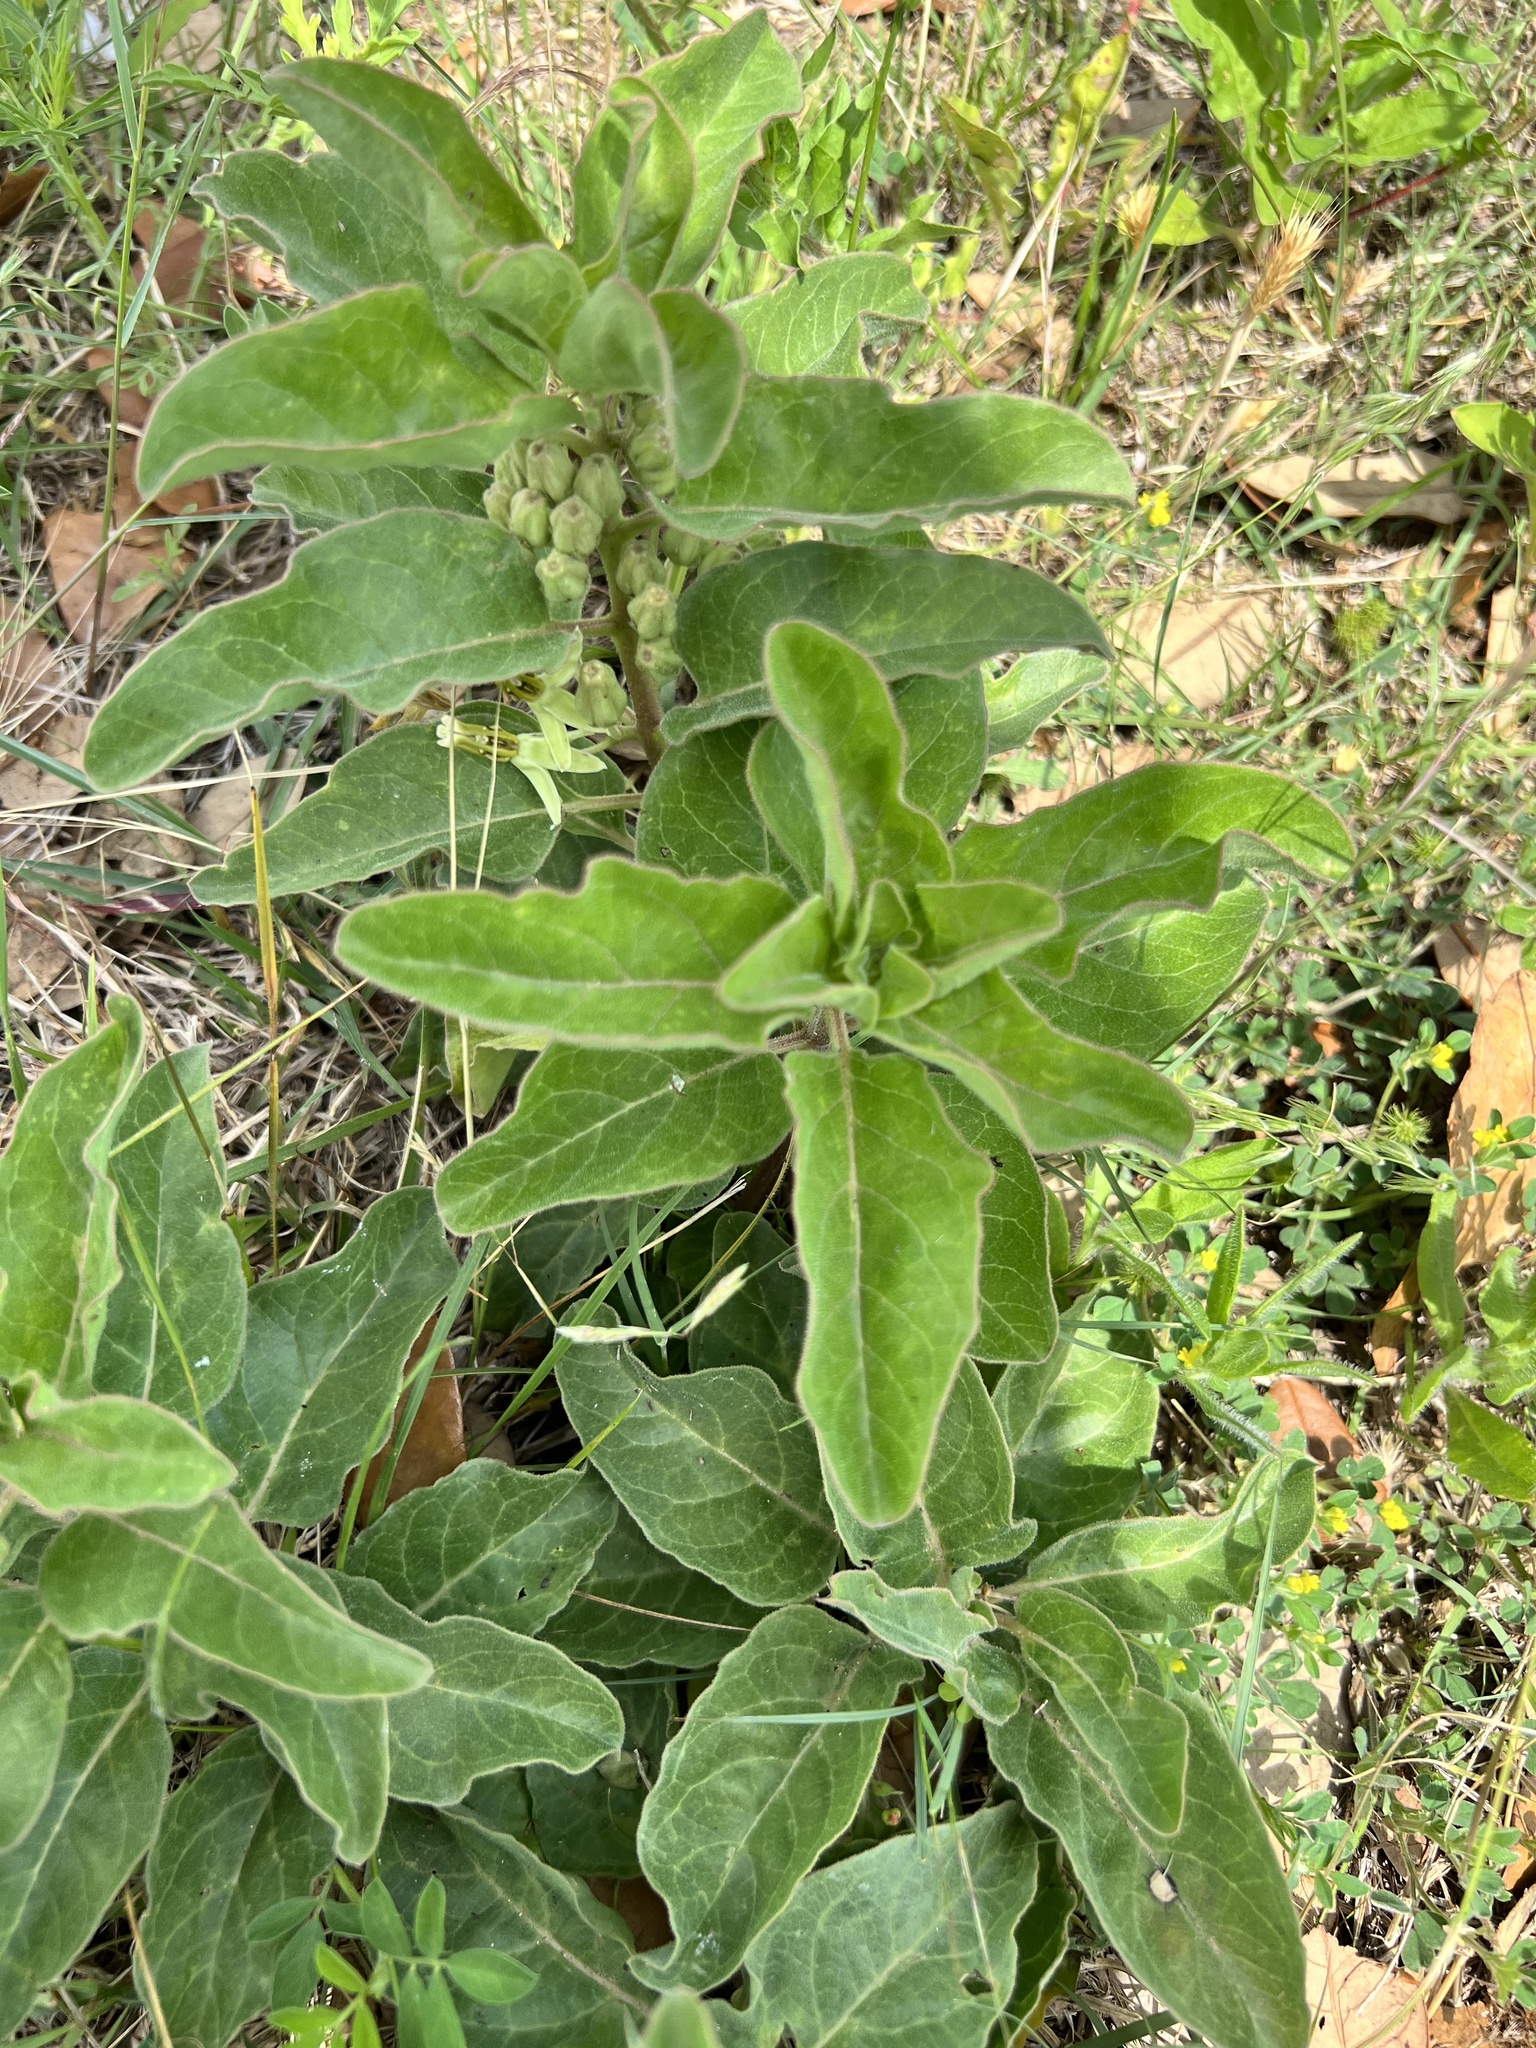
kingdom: Plantae
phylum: Tracheophyta
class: Magnoliopsida
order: Gentianales
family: Apocynaceae
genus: Asclepias
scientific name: Asclepias oenotheroides
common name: Zizotes milkweed
